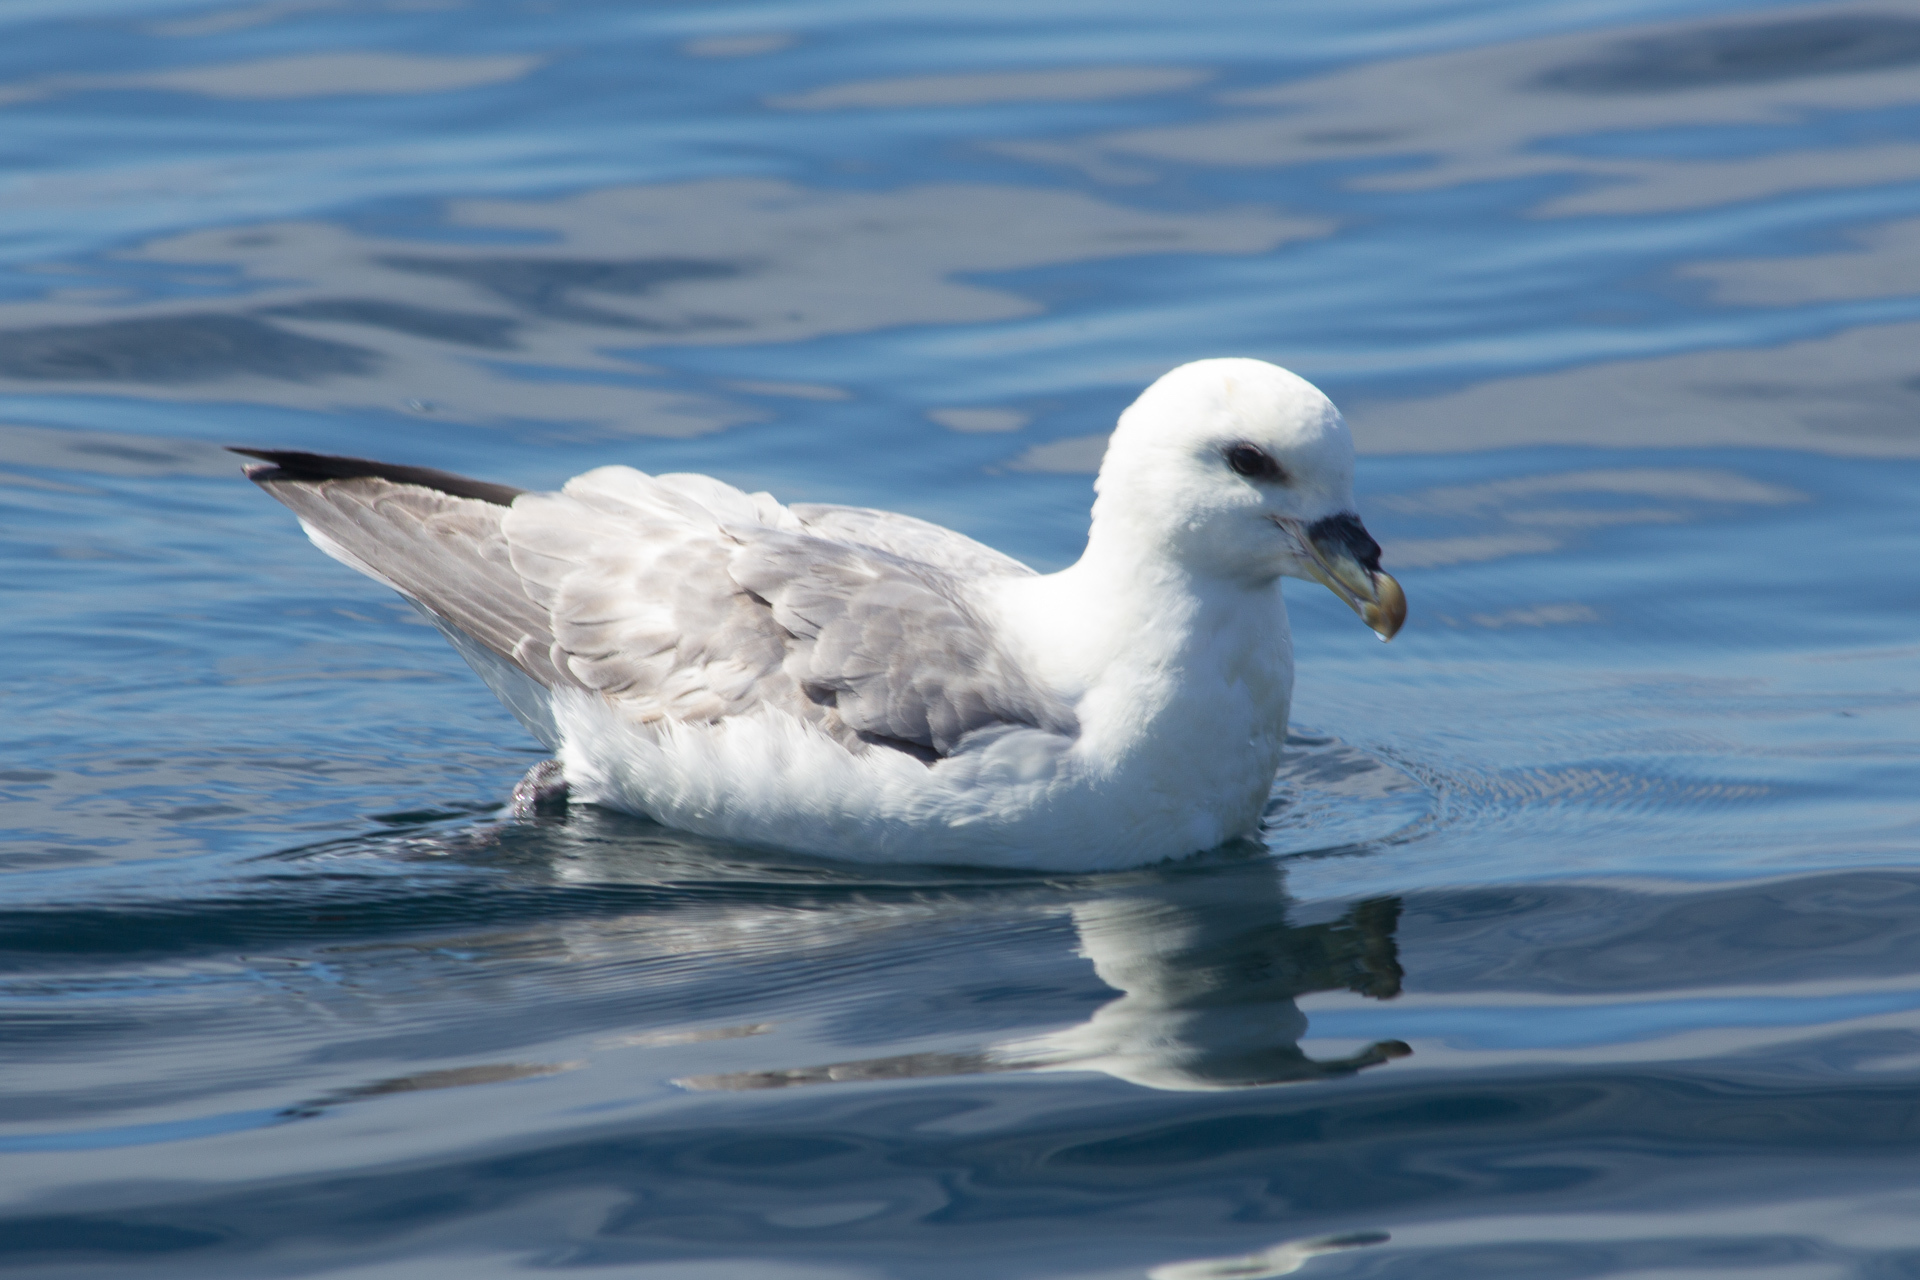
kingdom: Animalia
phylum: Chordata
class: Aves
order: Procellariiformes
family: Procellariidae
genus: Fulmarus
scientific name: Fulmarus glacialis
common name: Northern fulmar
